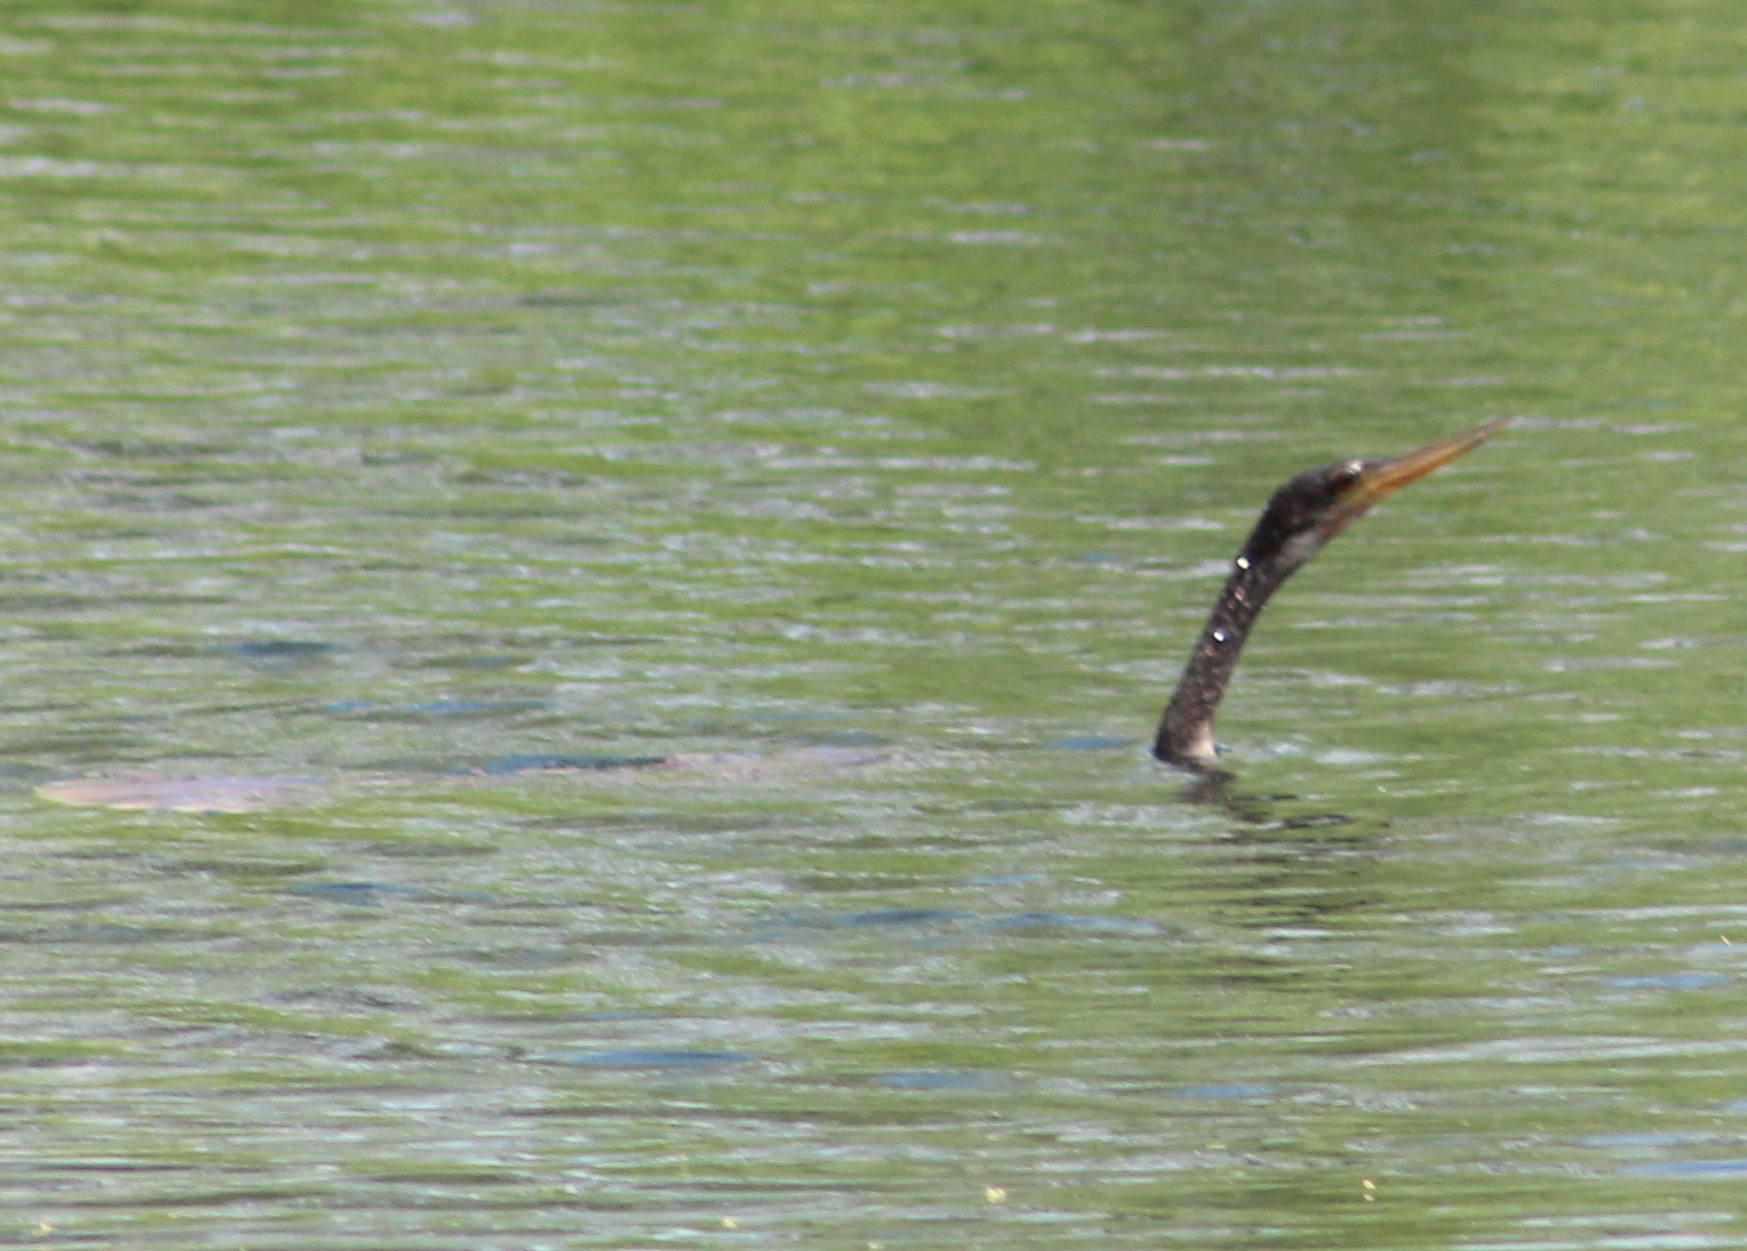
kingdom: Animalia
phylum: Chordata
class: Aves
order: Suliformes
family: Anhingidae
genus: Anhinga
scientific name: Anhinga anhinga
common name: Anhinga
